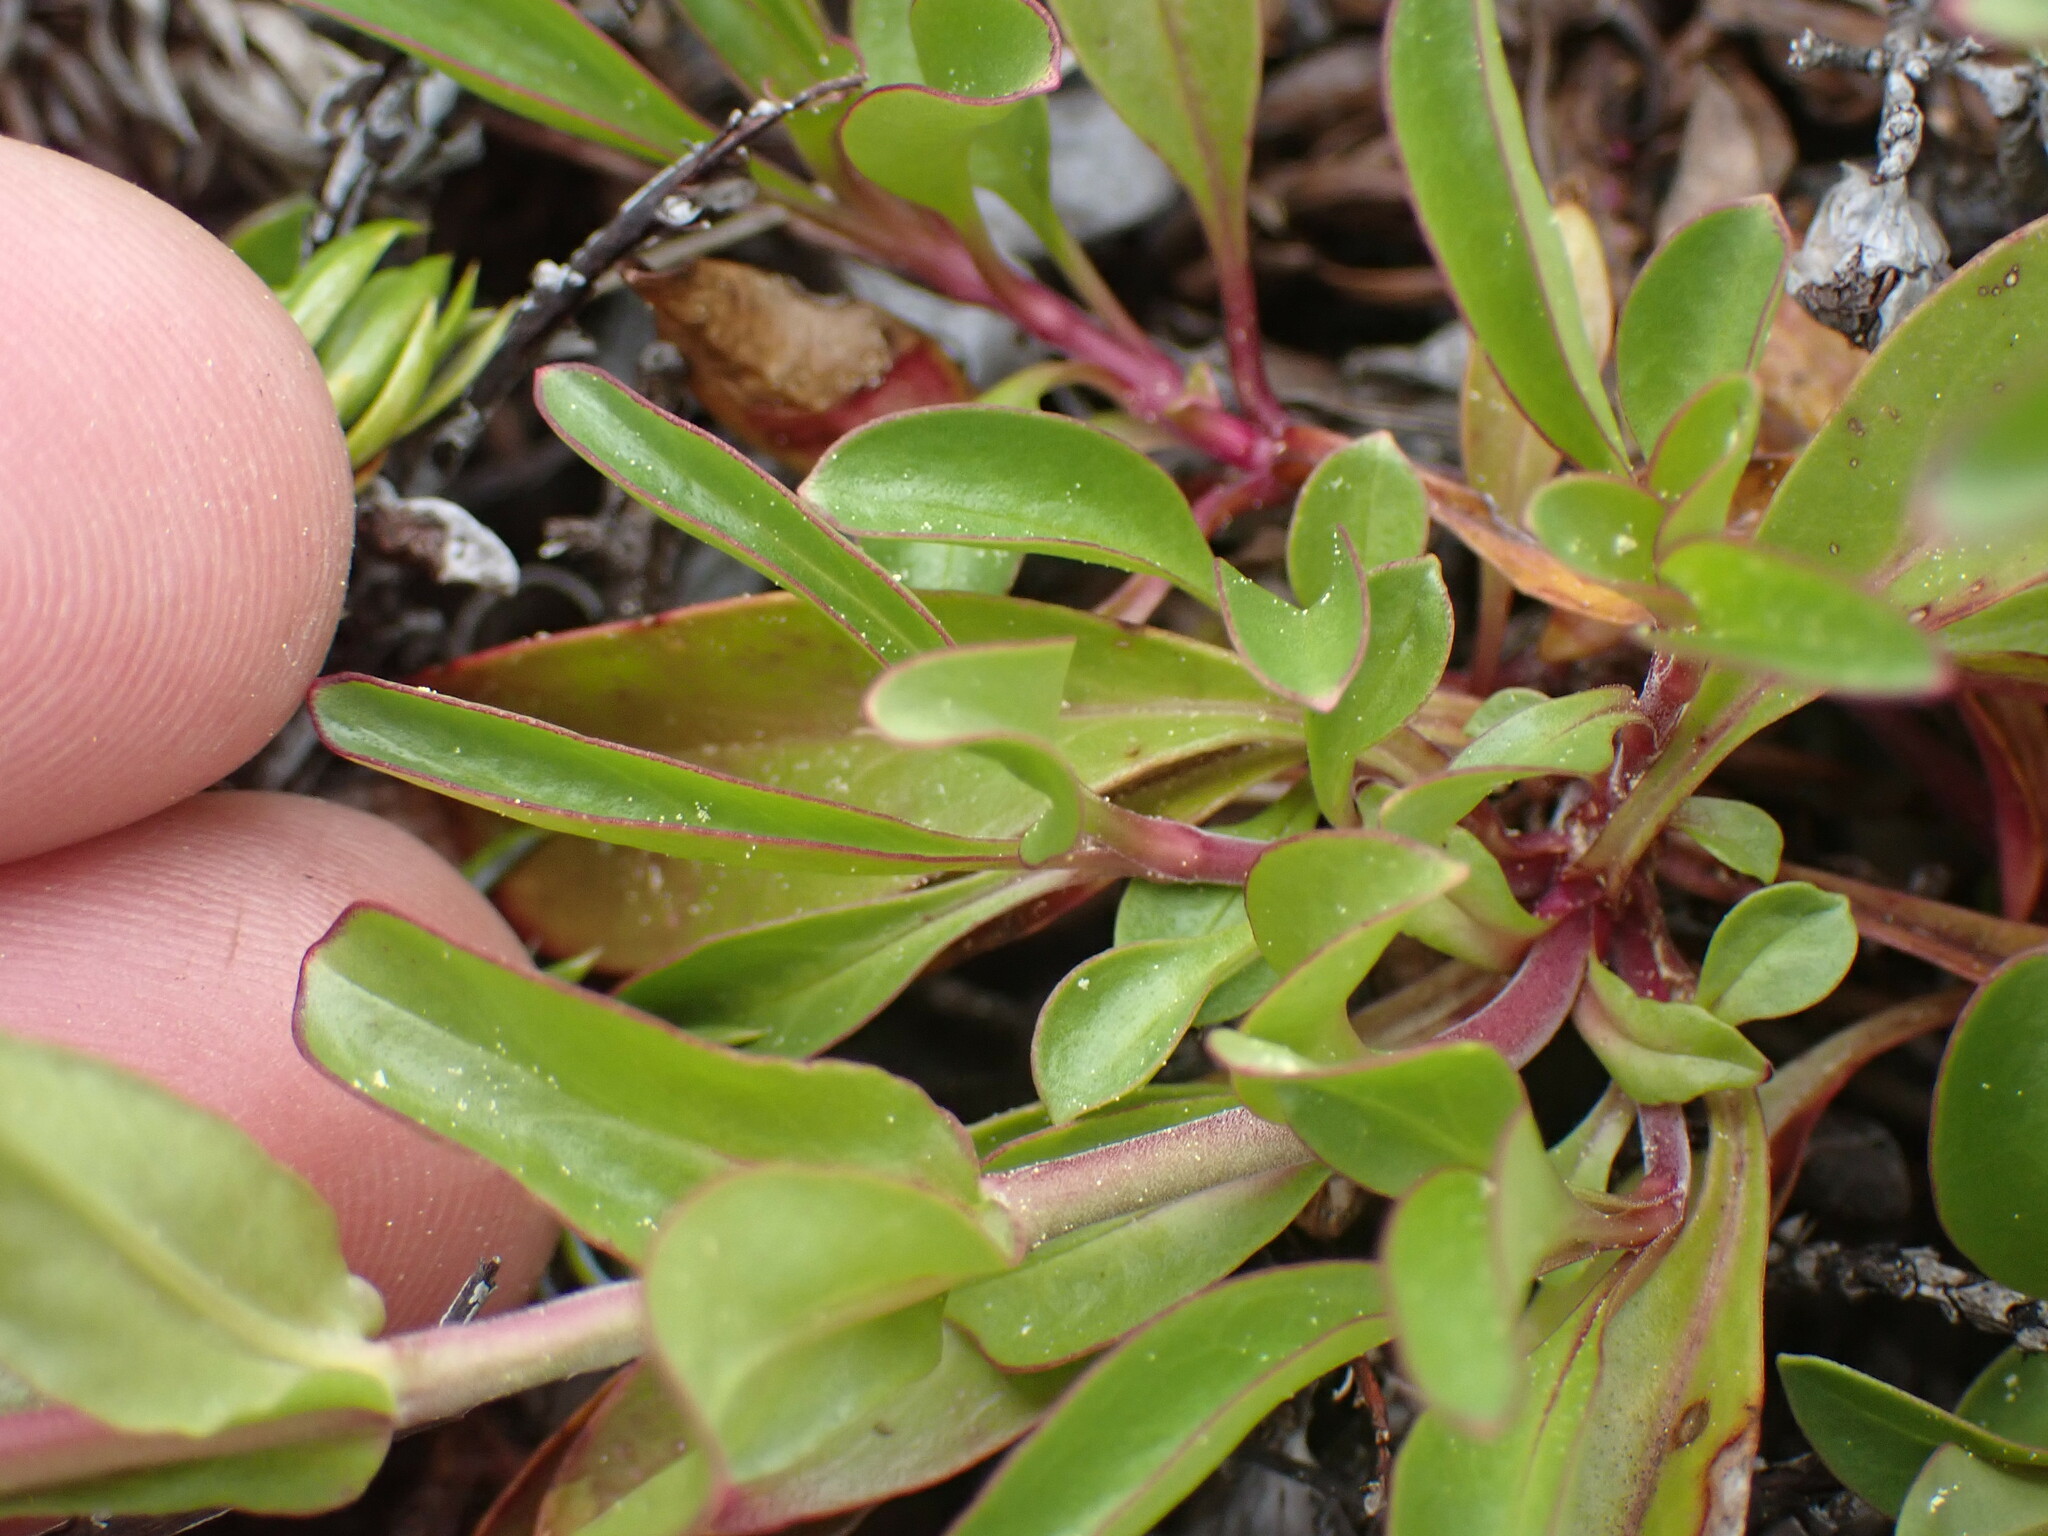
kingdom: Plantae
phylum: Tracheophyta
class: Magnoliopsida
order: Lamiales
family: Plantaginaceae
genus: Penstemon
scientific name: Penstemon procerus
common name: Small-flower penstemon
